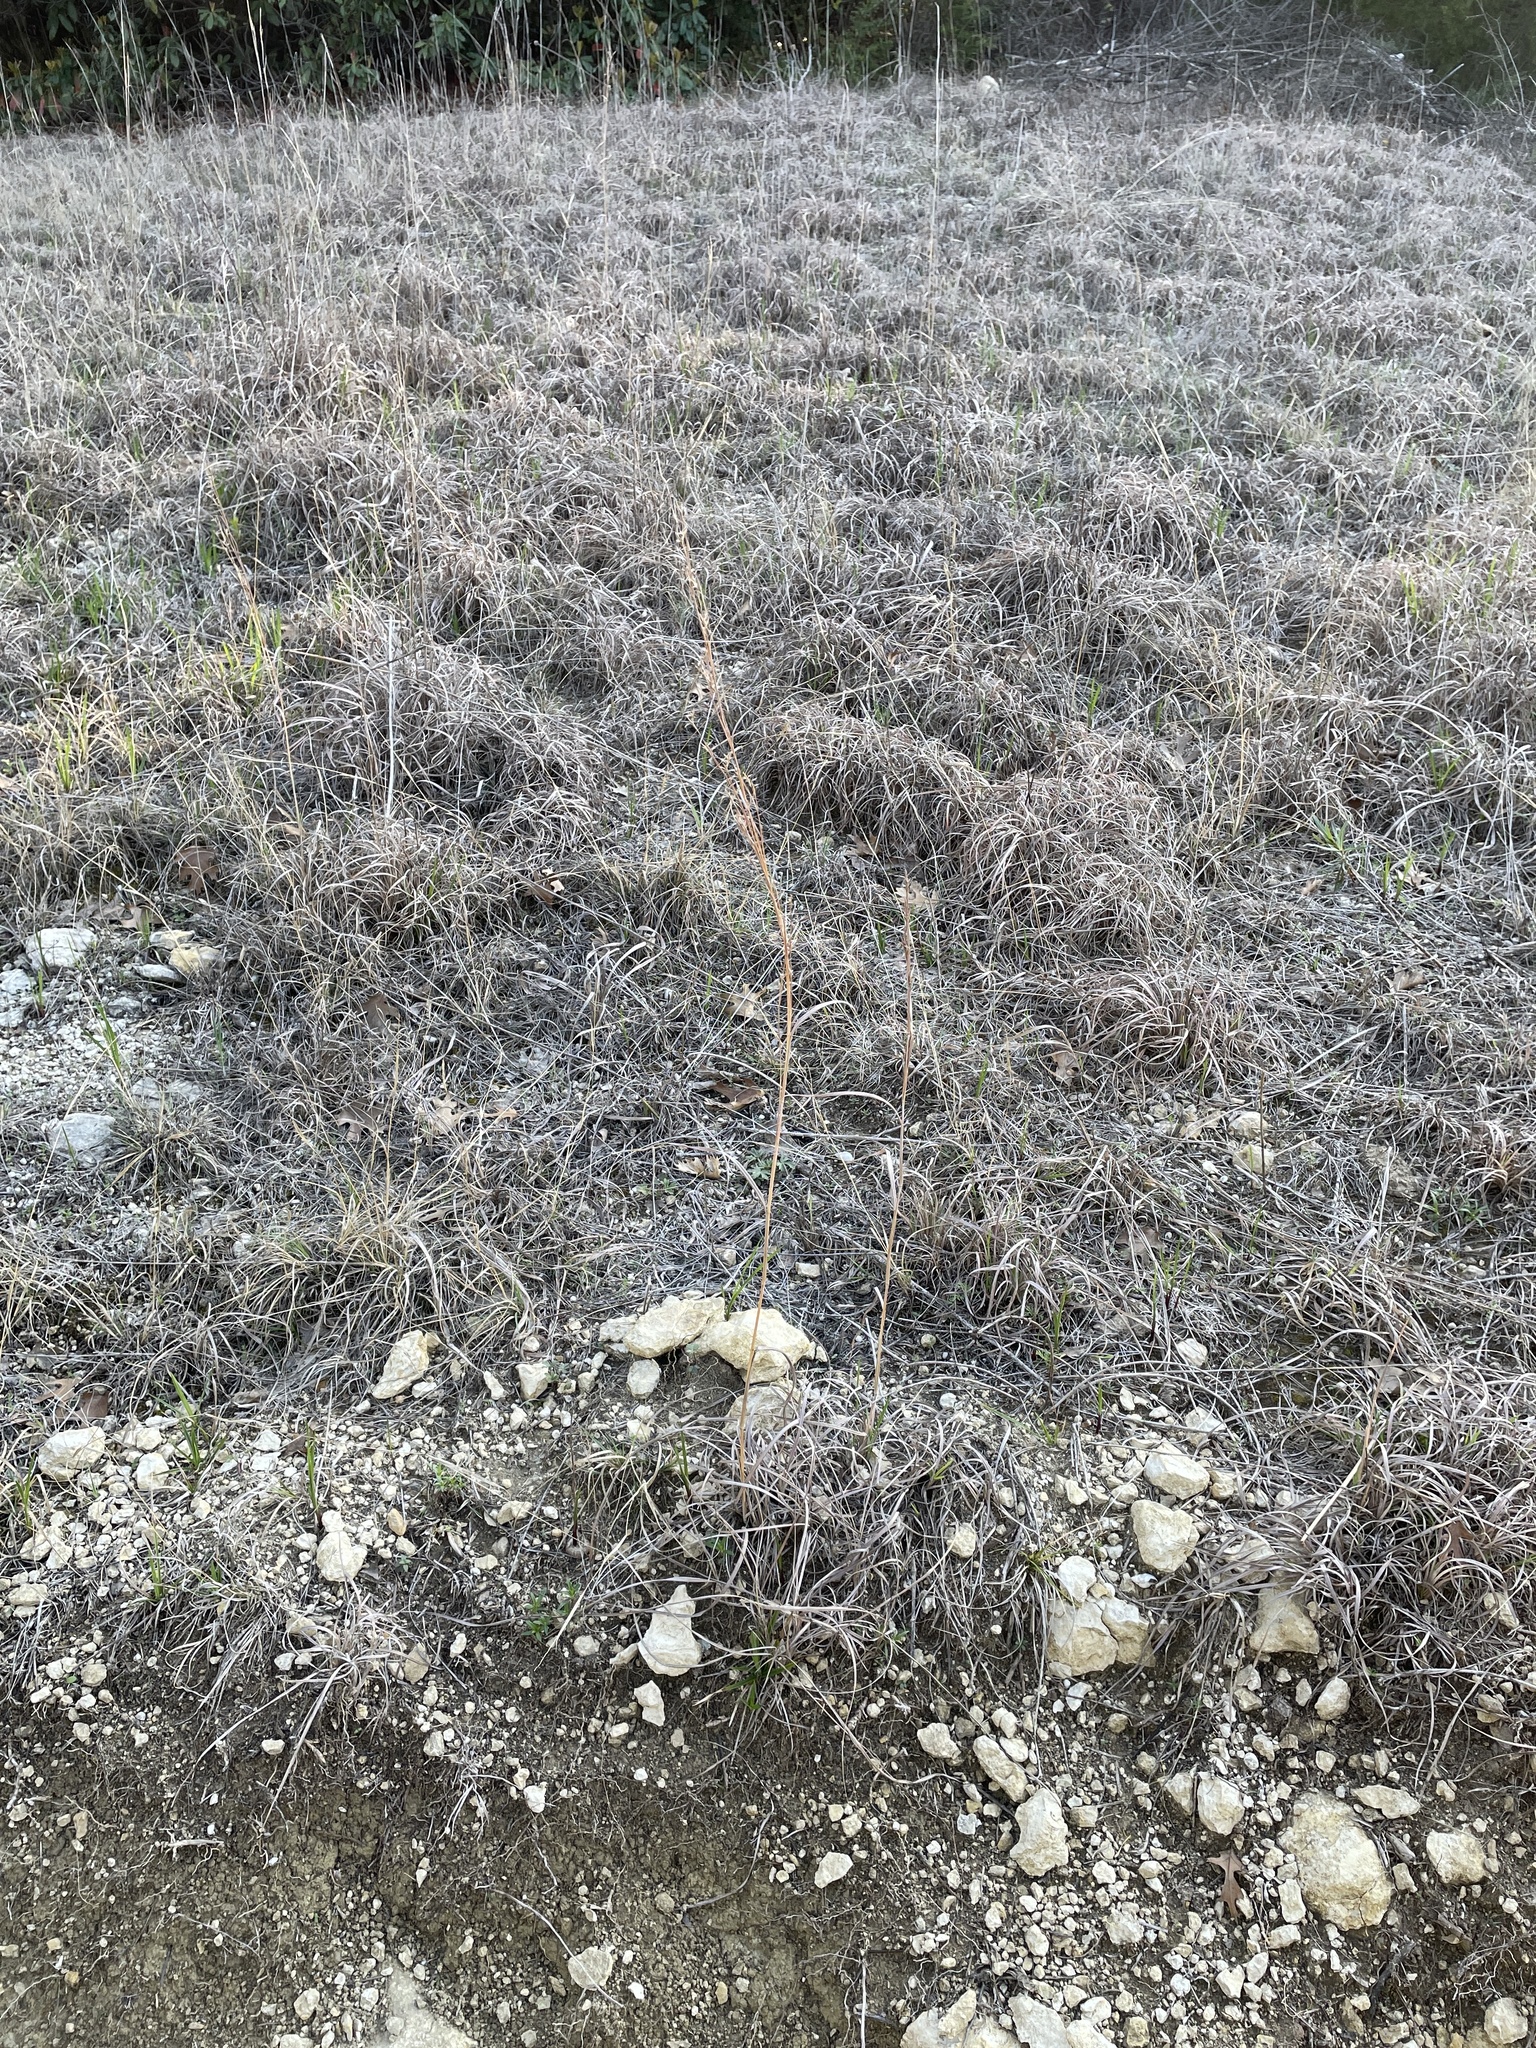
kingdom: Plantae
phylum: Tracheophyta
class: Liliopsida
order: Poales
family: Poaceae
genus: Schizachyrium
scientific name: Schizachyrium scoparium
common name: Little bluestem
